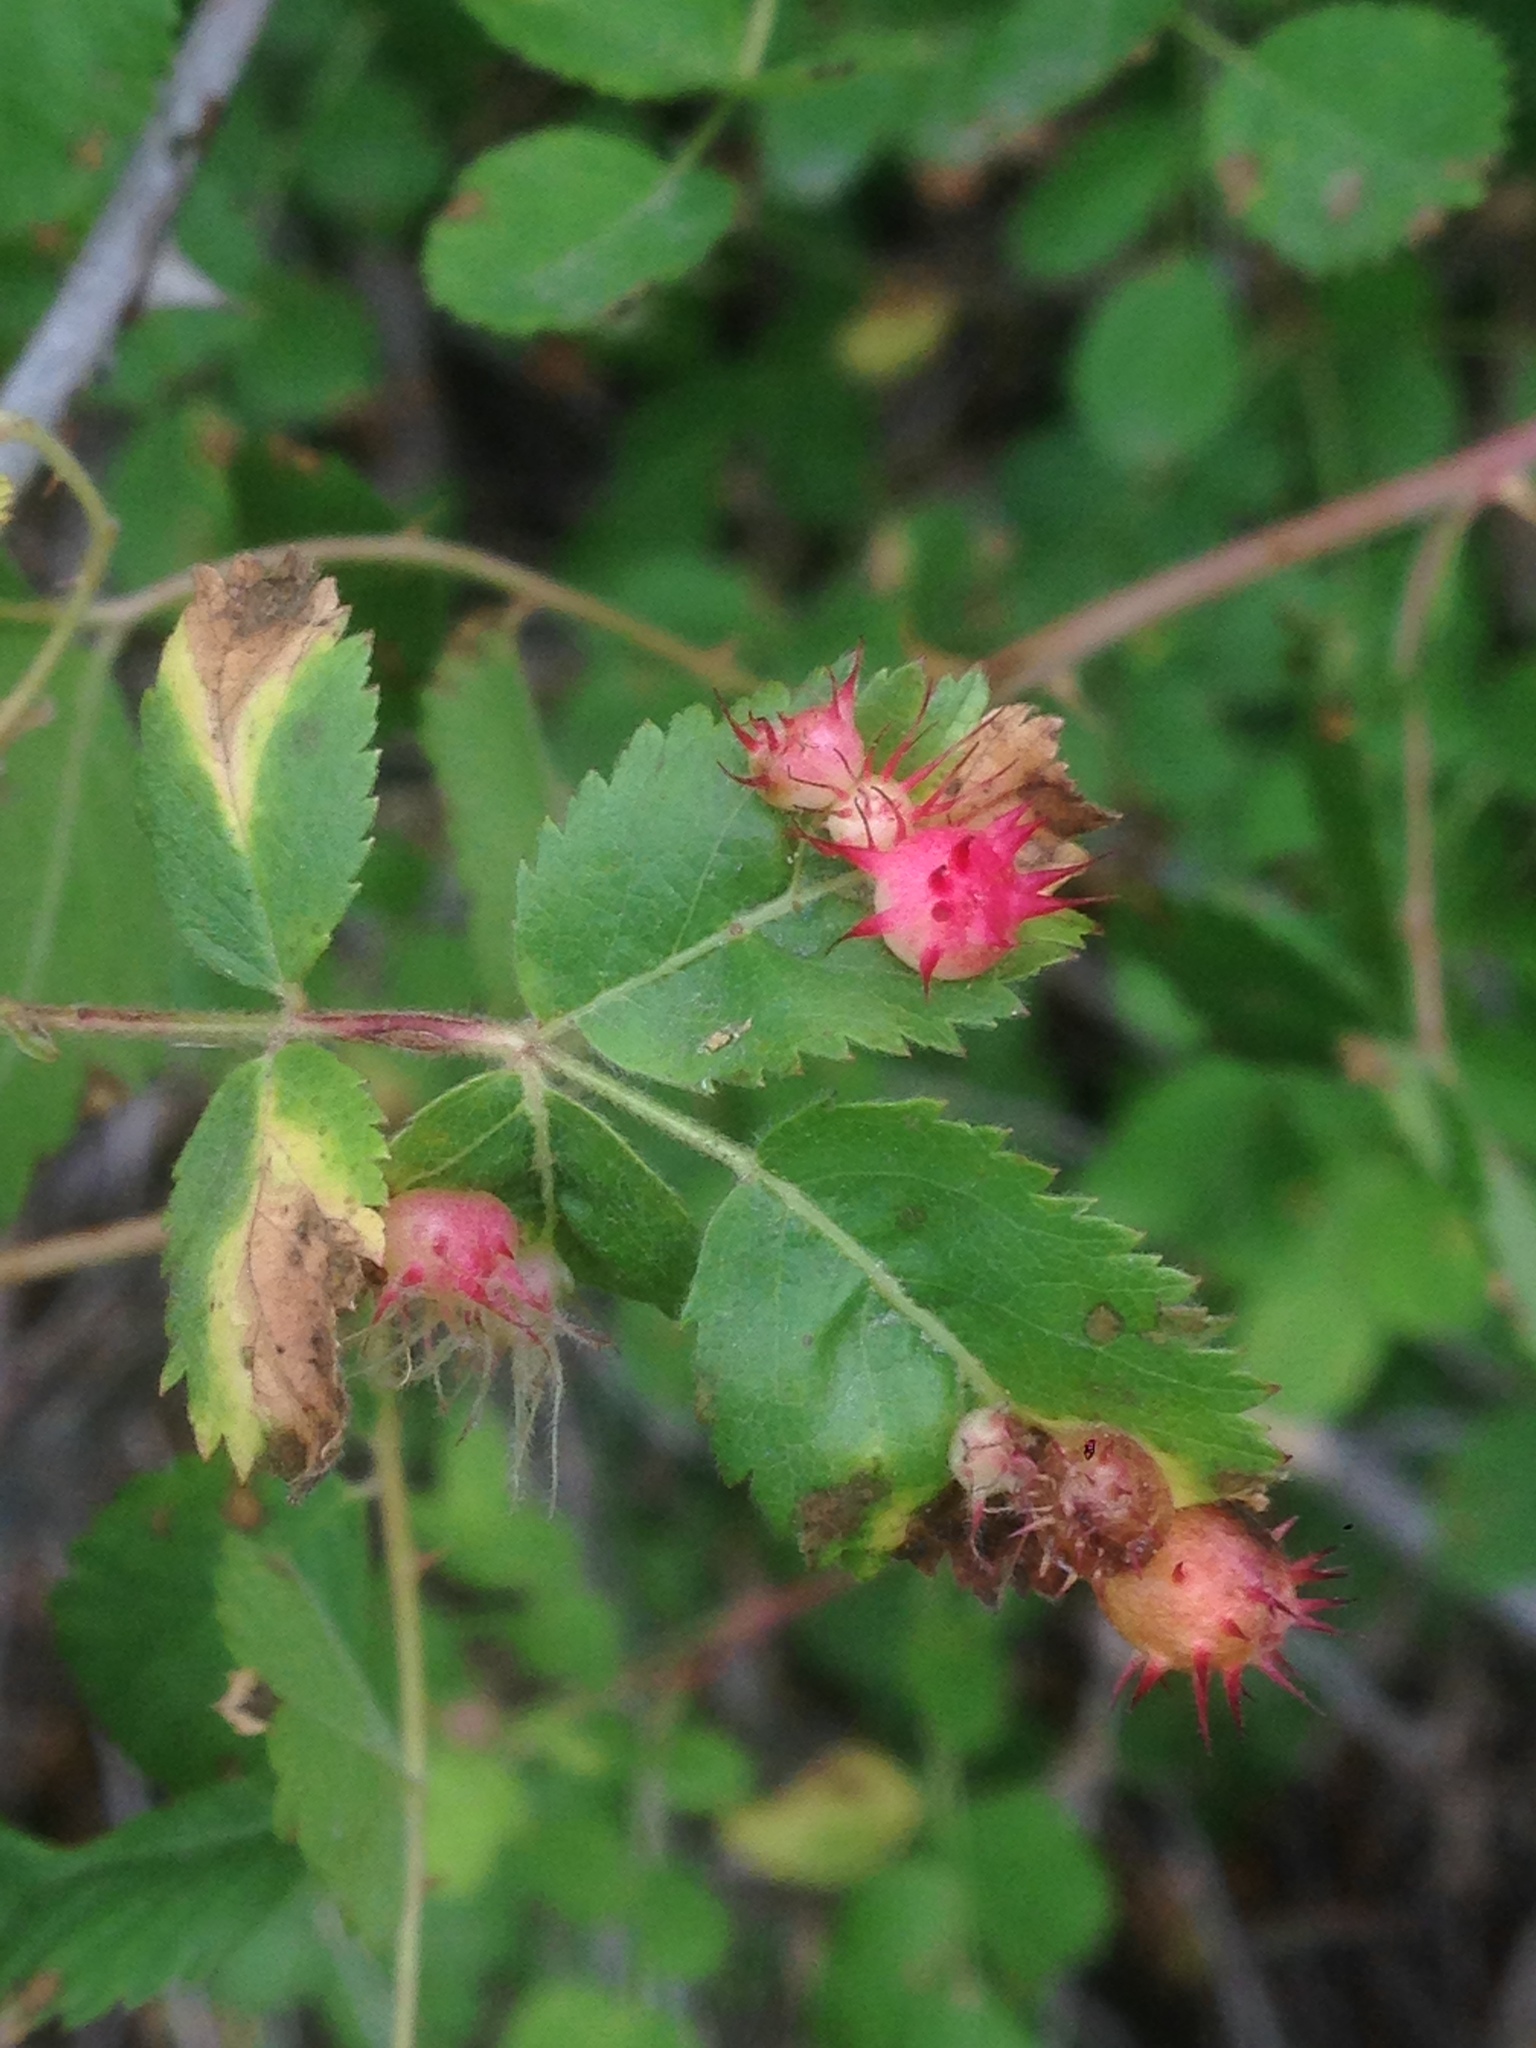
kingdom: Animalia
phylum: Arthropoda
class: Insecta
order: Hymenoptera
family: Cynipidae
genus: Diplolepis
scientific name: Diplolepis polita
